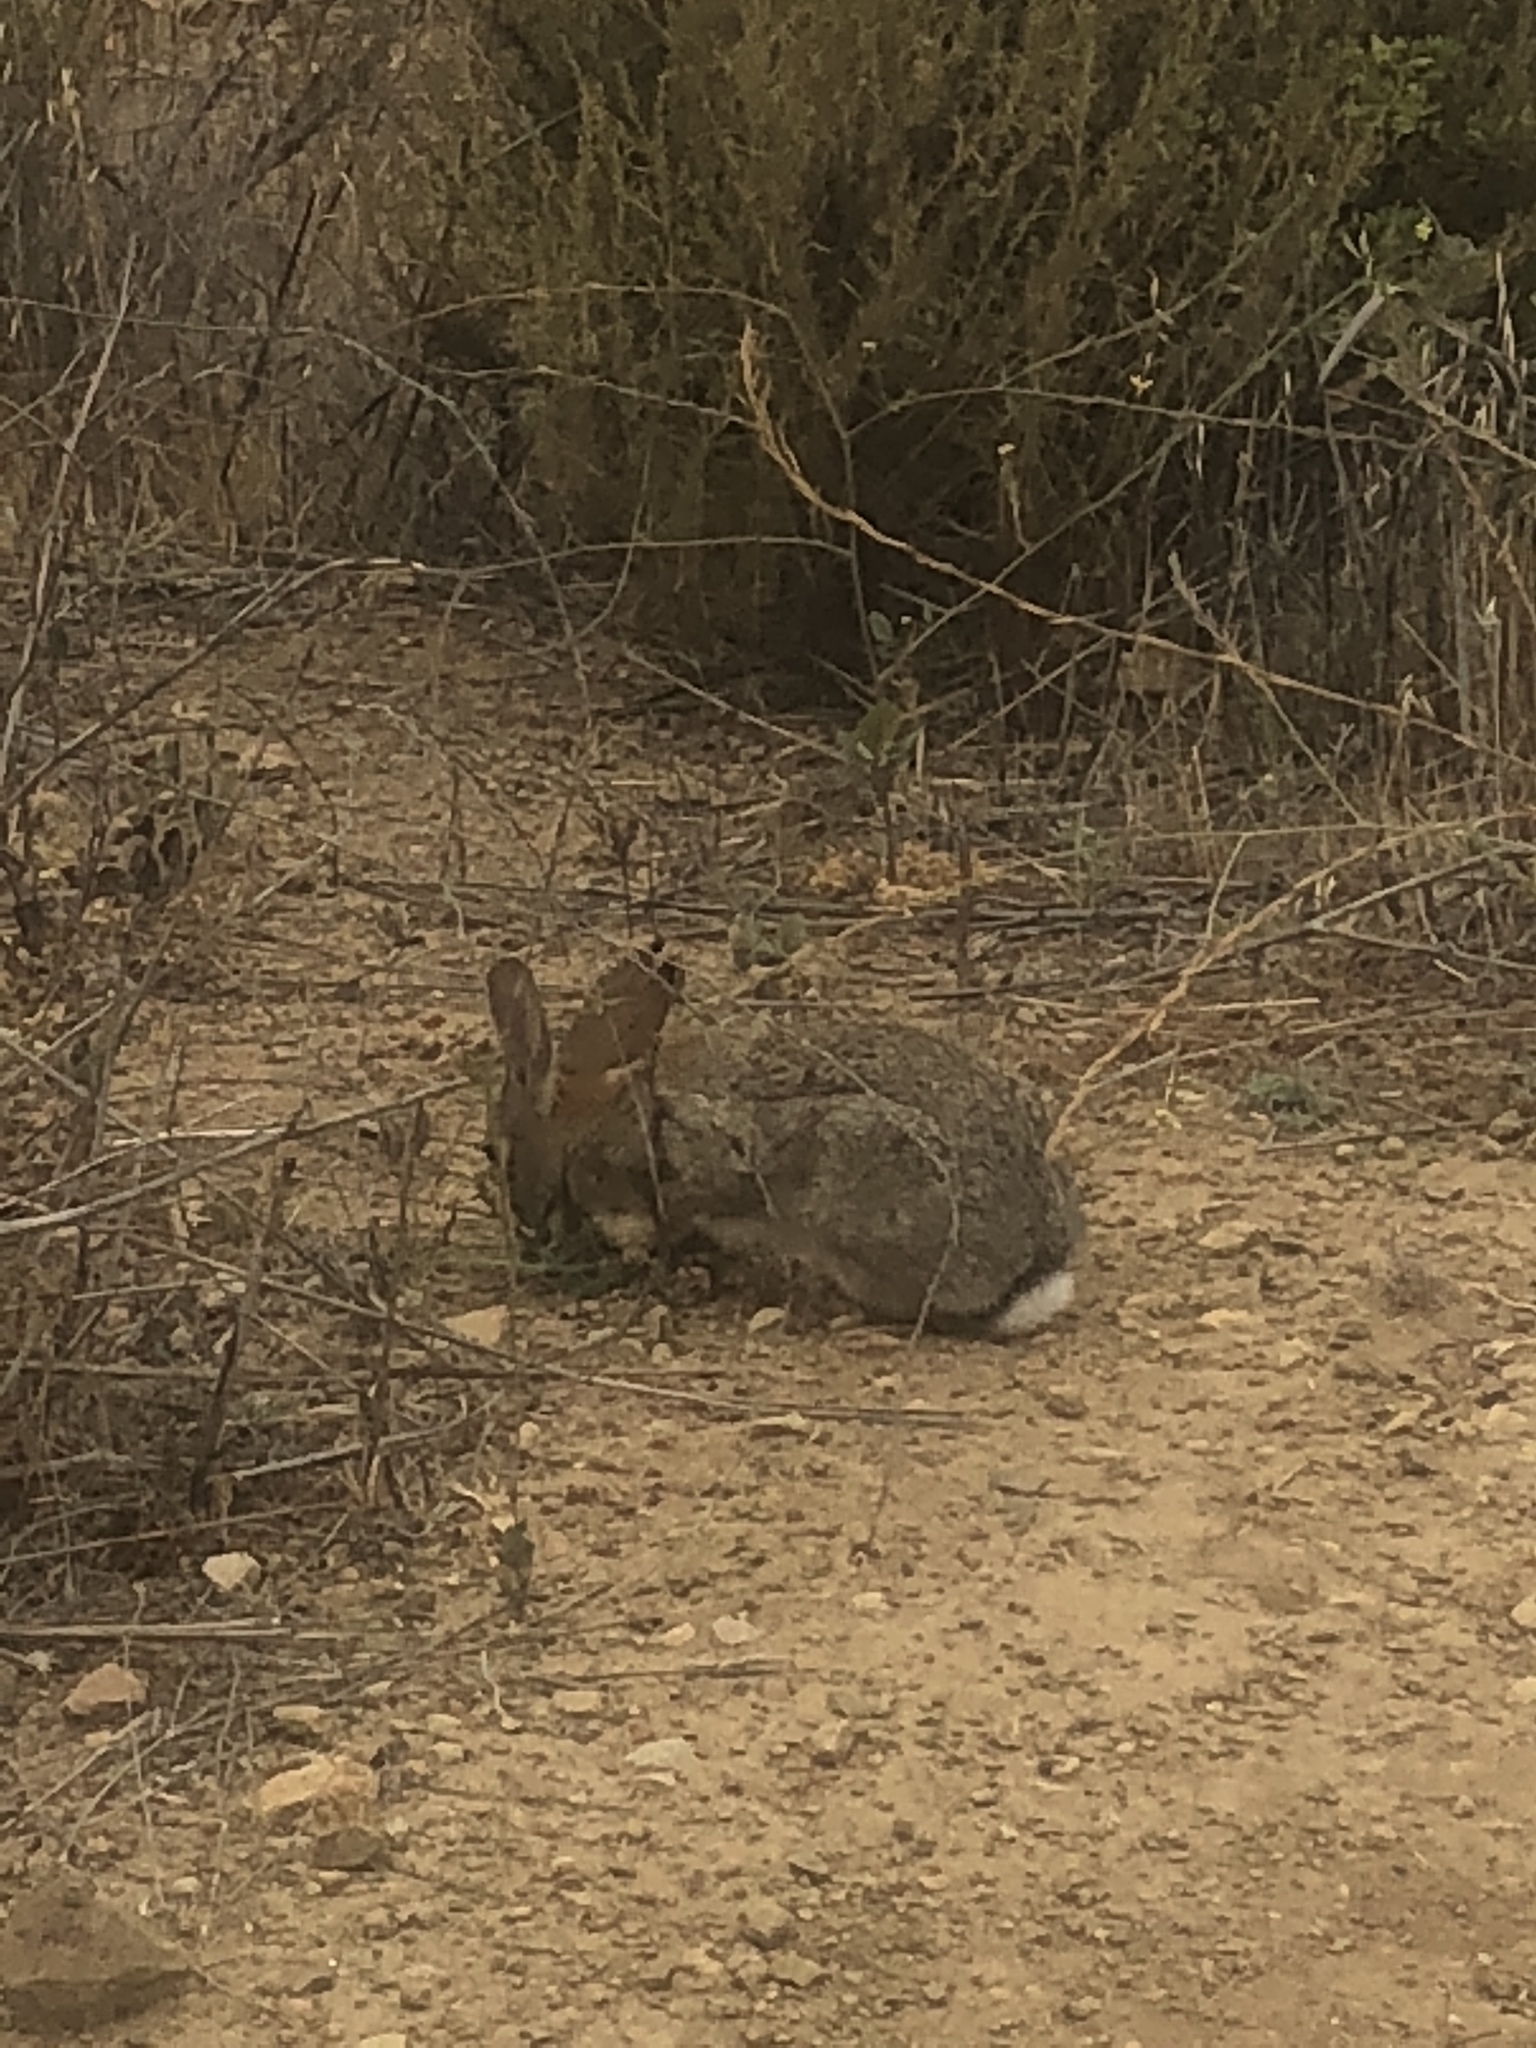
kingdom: Animalia
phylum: Chordata
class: Mammalia
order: Lagomorpha
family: Leporidae
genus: Sylvilagus
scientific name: Sylvilagus audubonii
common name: Desert cottontail
